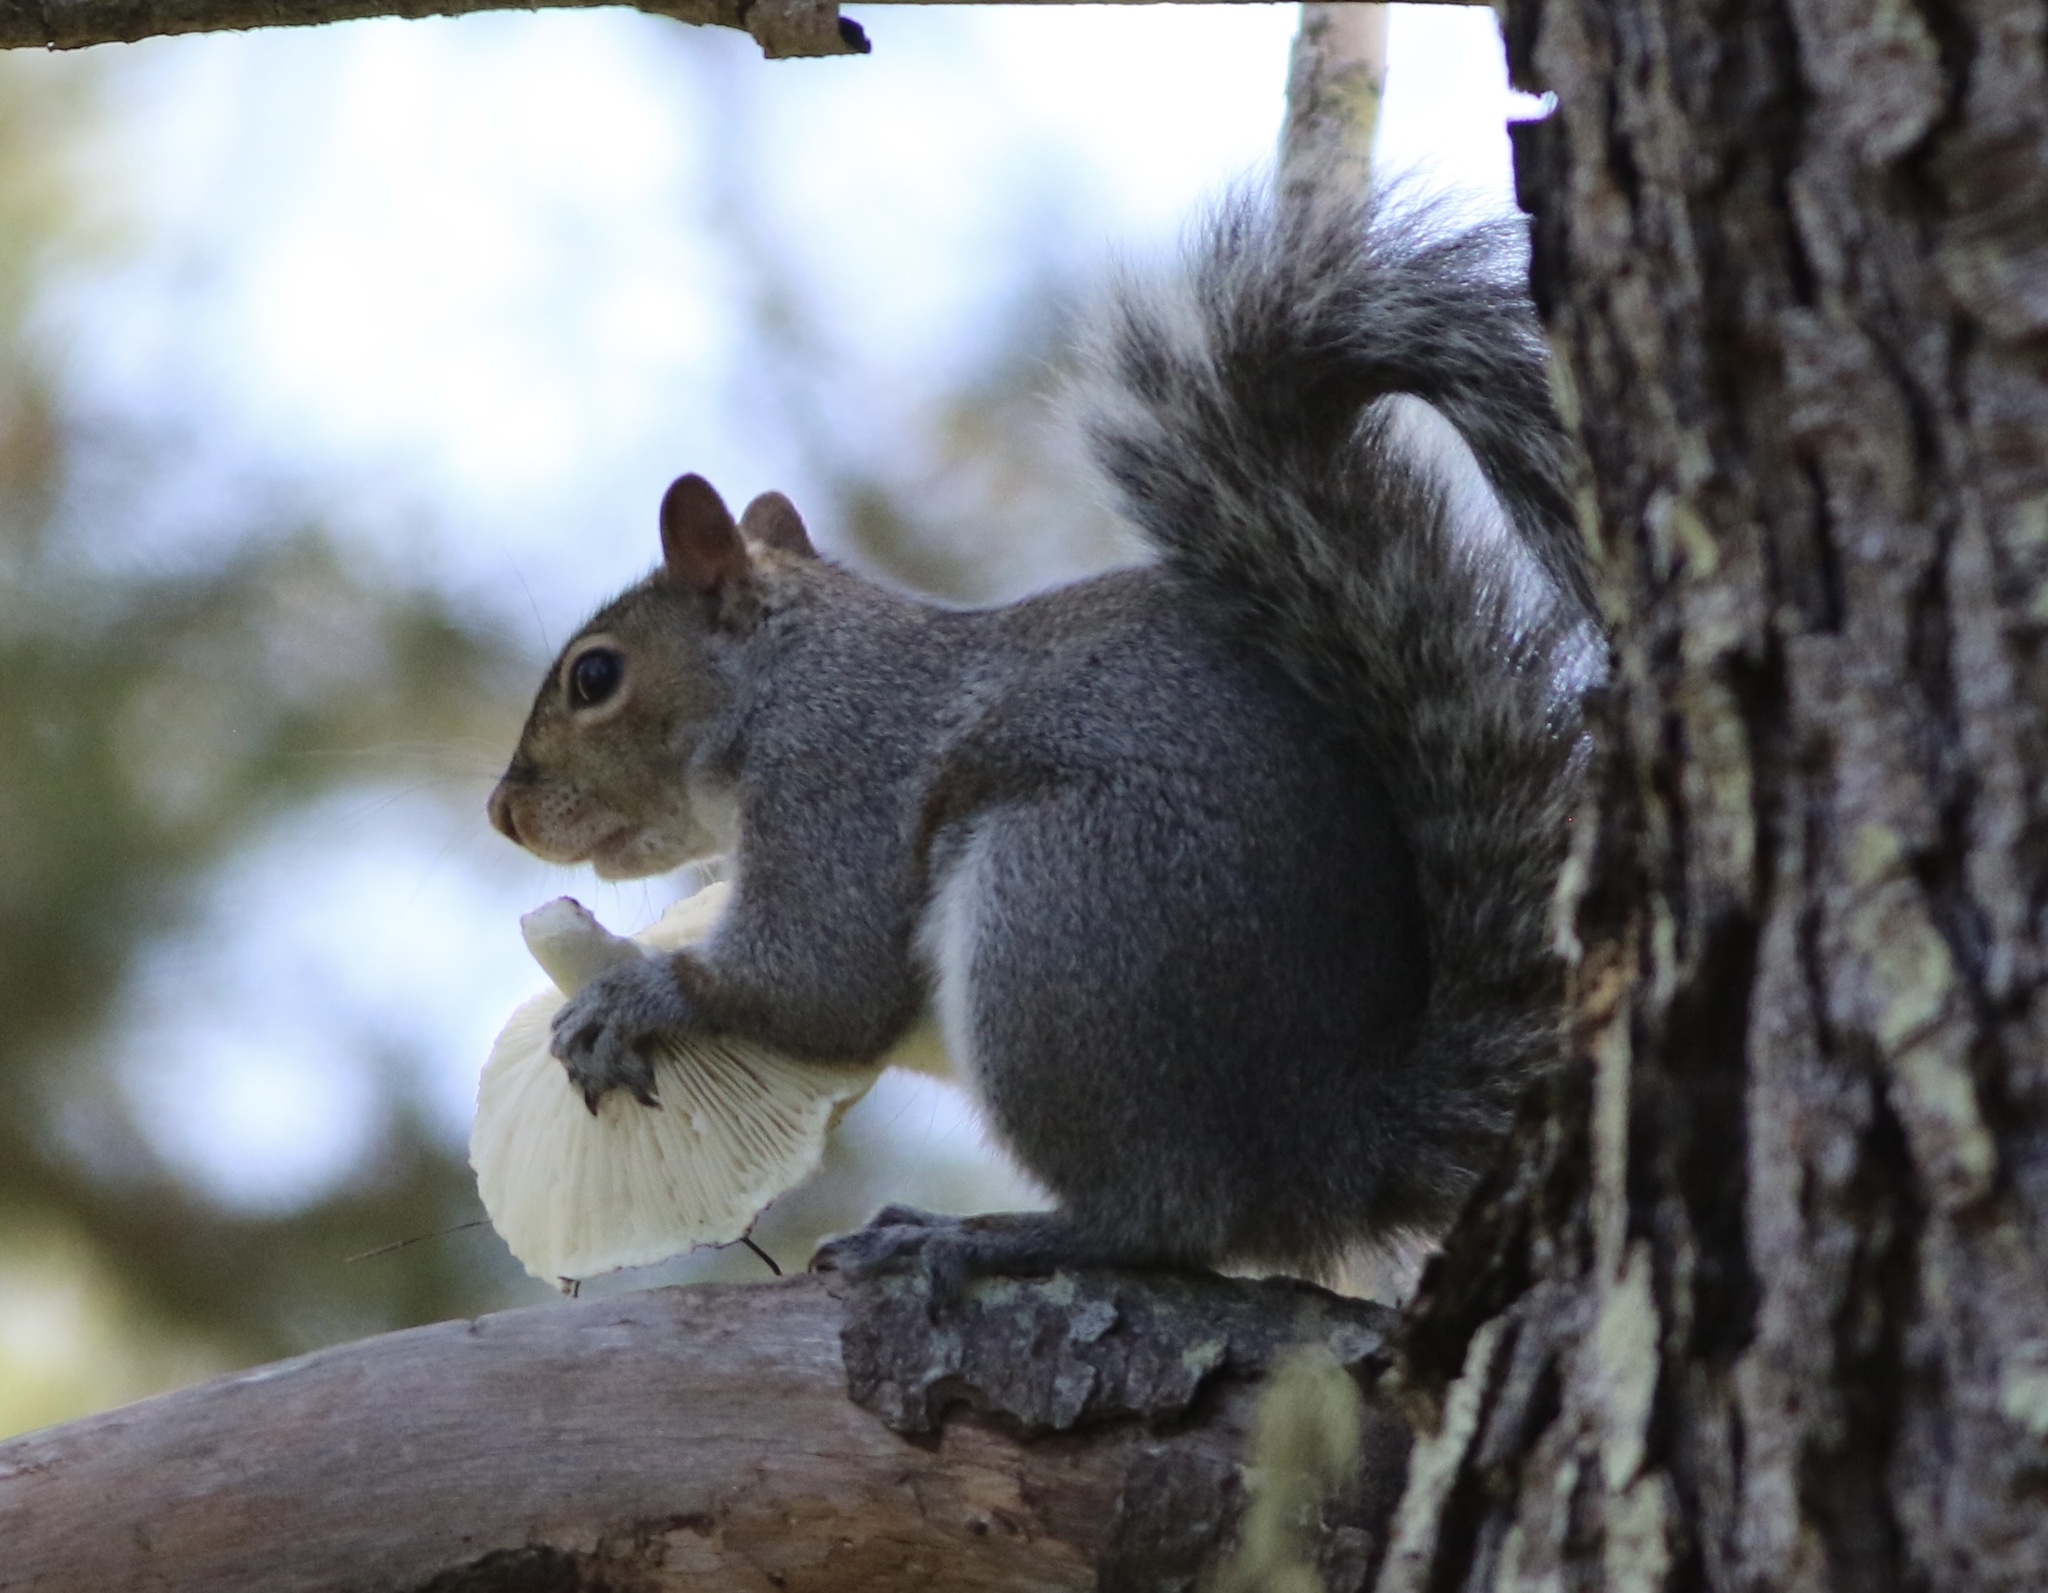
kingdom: Animalia
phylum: Chordata
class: Mammalia
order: Rodentia
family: Sciuridae
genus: Sciurus
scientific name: Sciurus carolinensis
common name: Eastern gray squirrel
